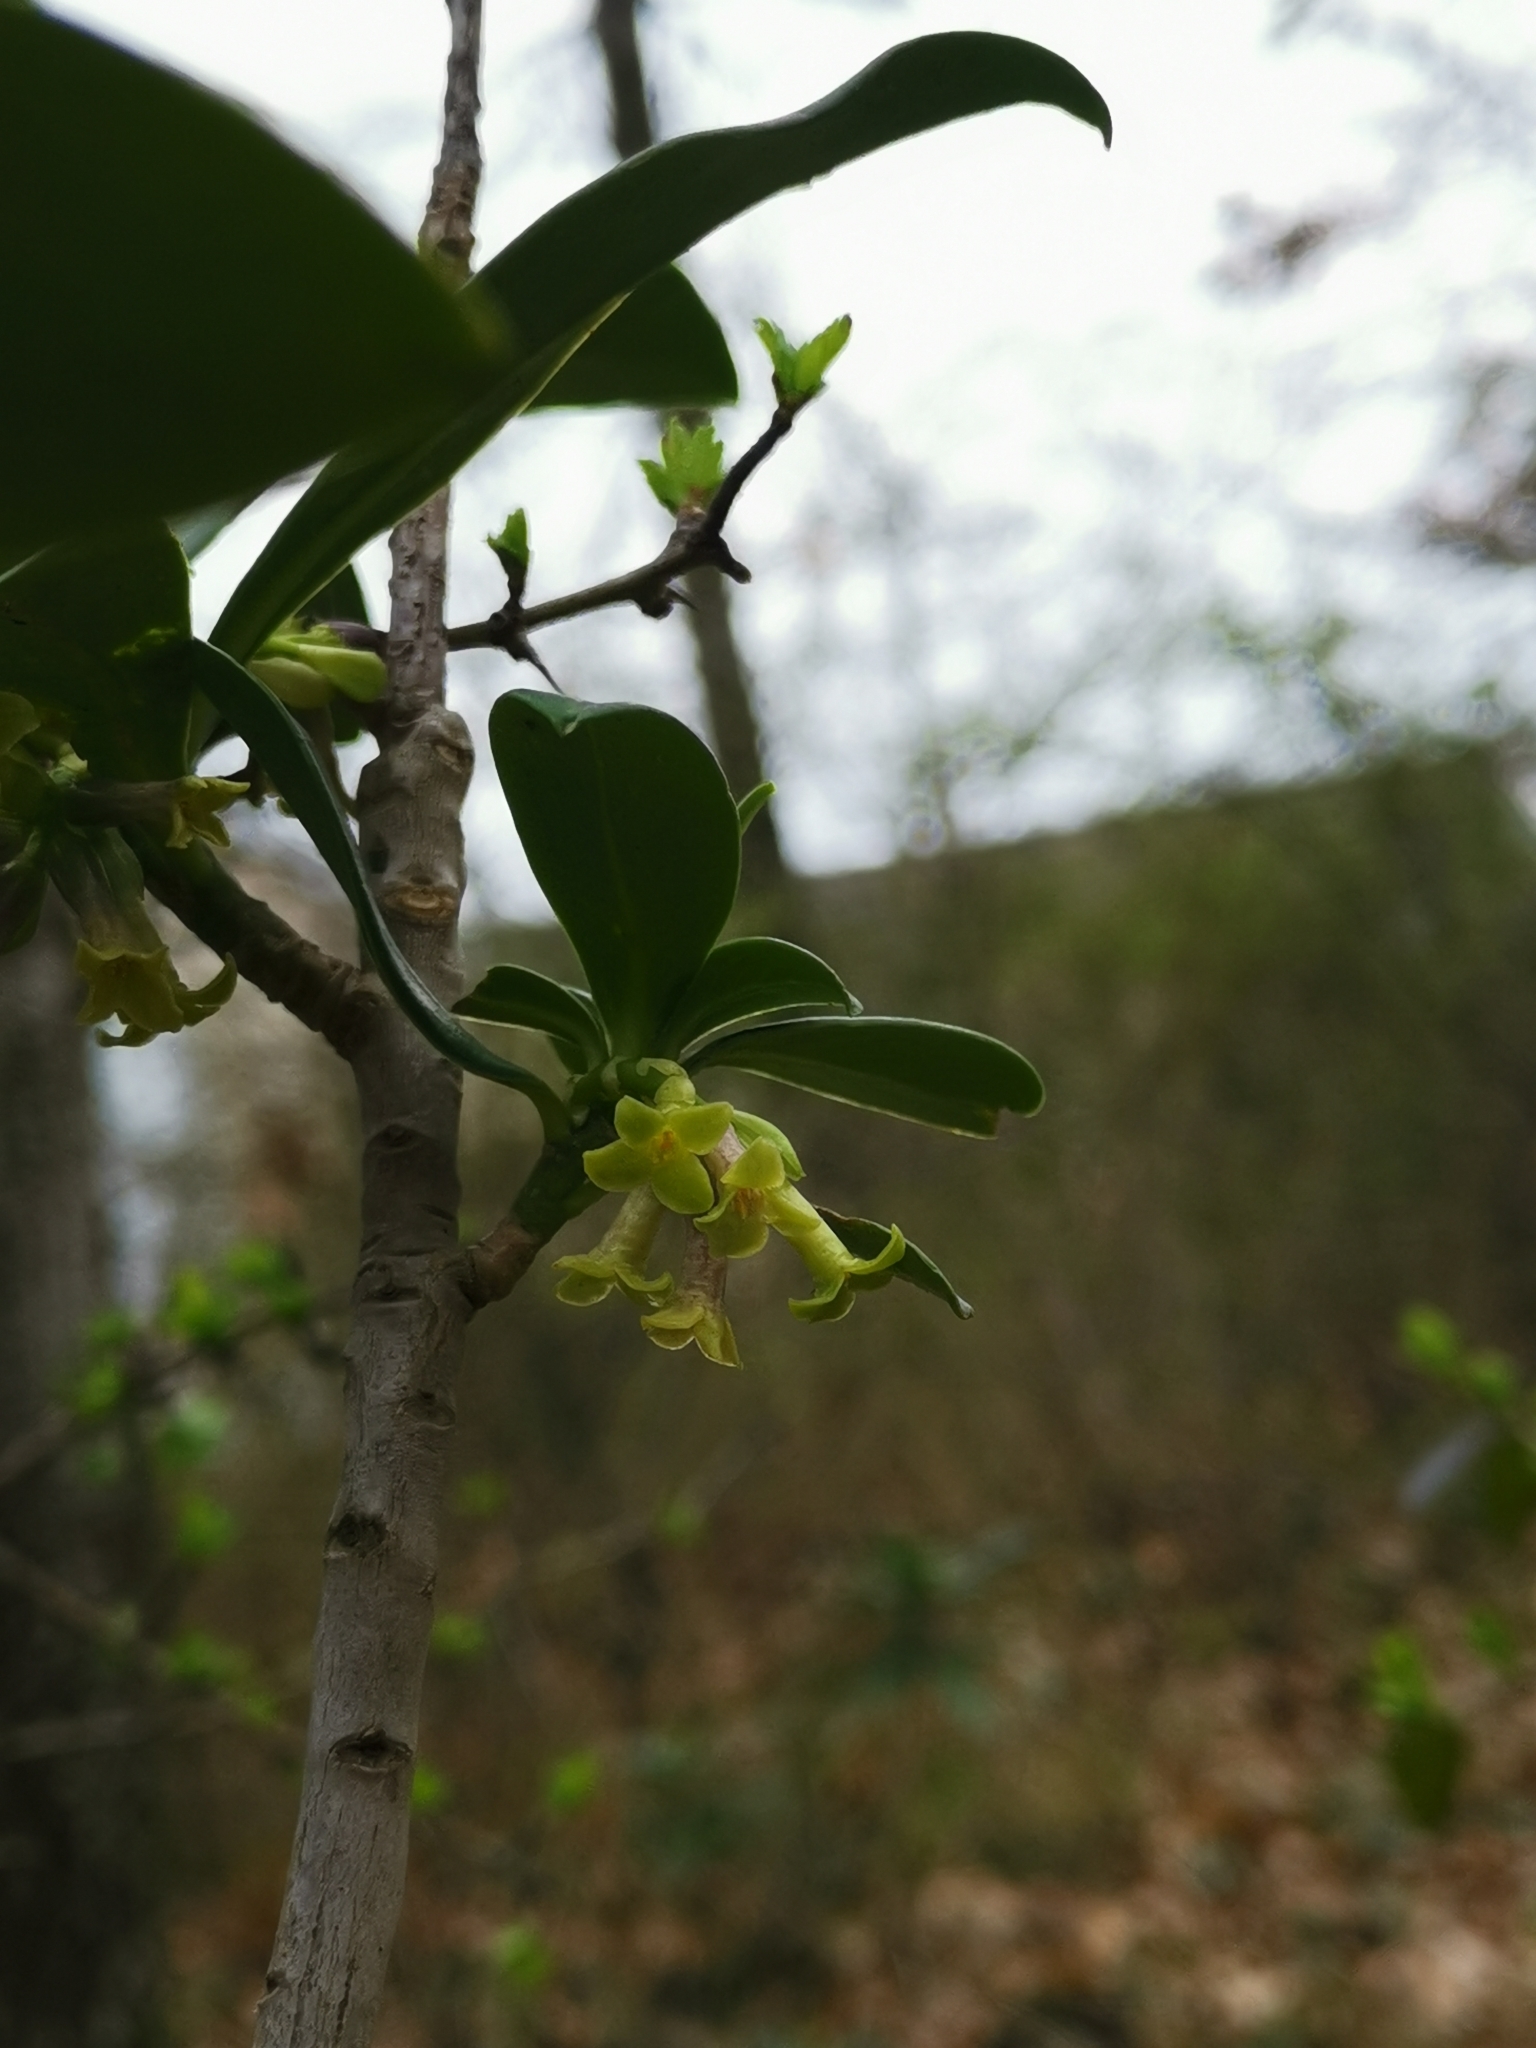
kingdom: Plantae
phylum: Tracheophyta
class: Magnoliopsida
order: Malvales
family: Thymelaeaceae
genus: Daphne
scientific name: Daphne laureola
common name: Spurge-laurel
